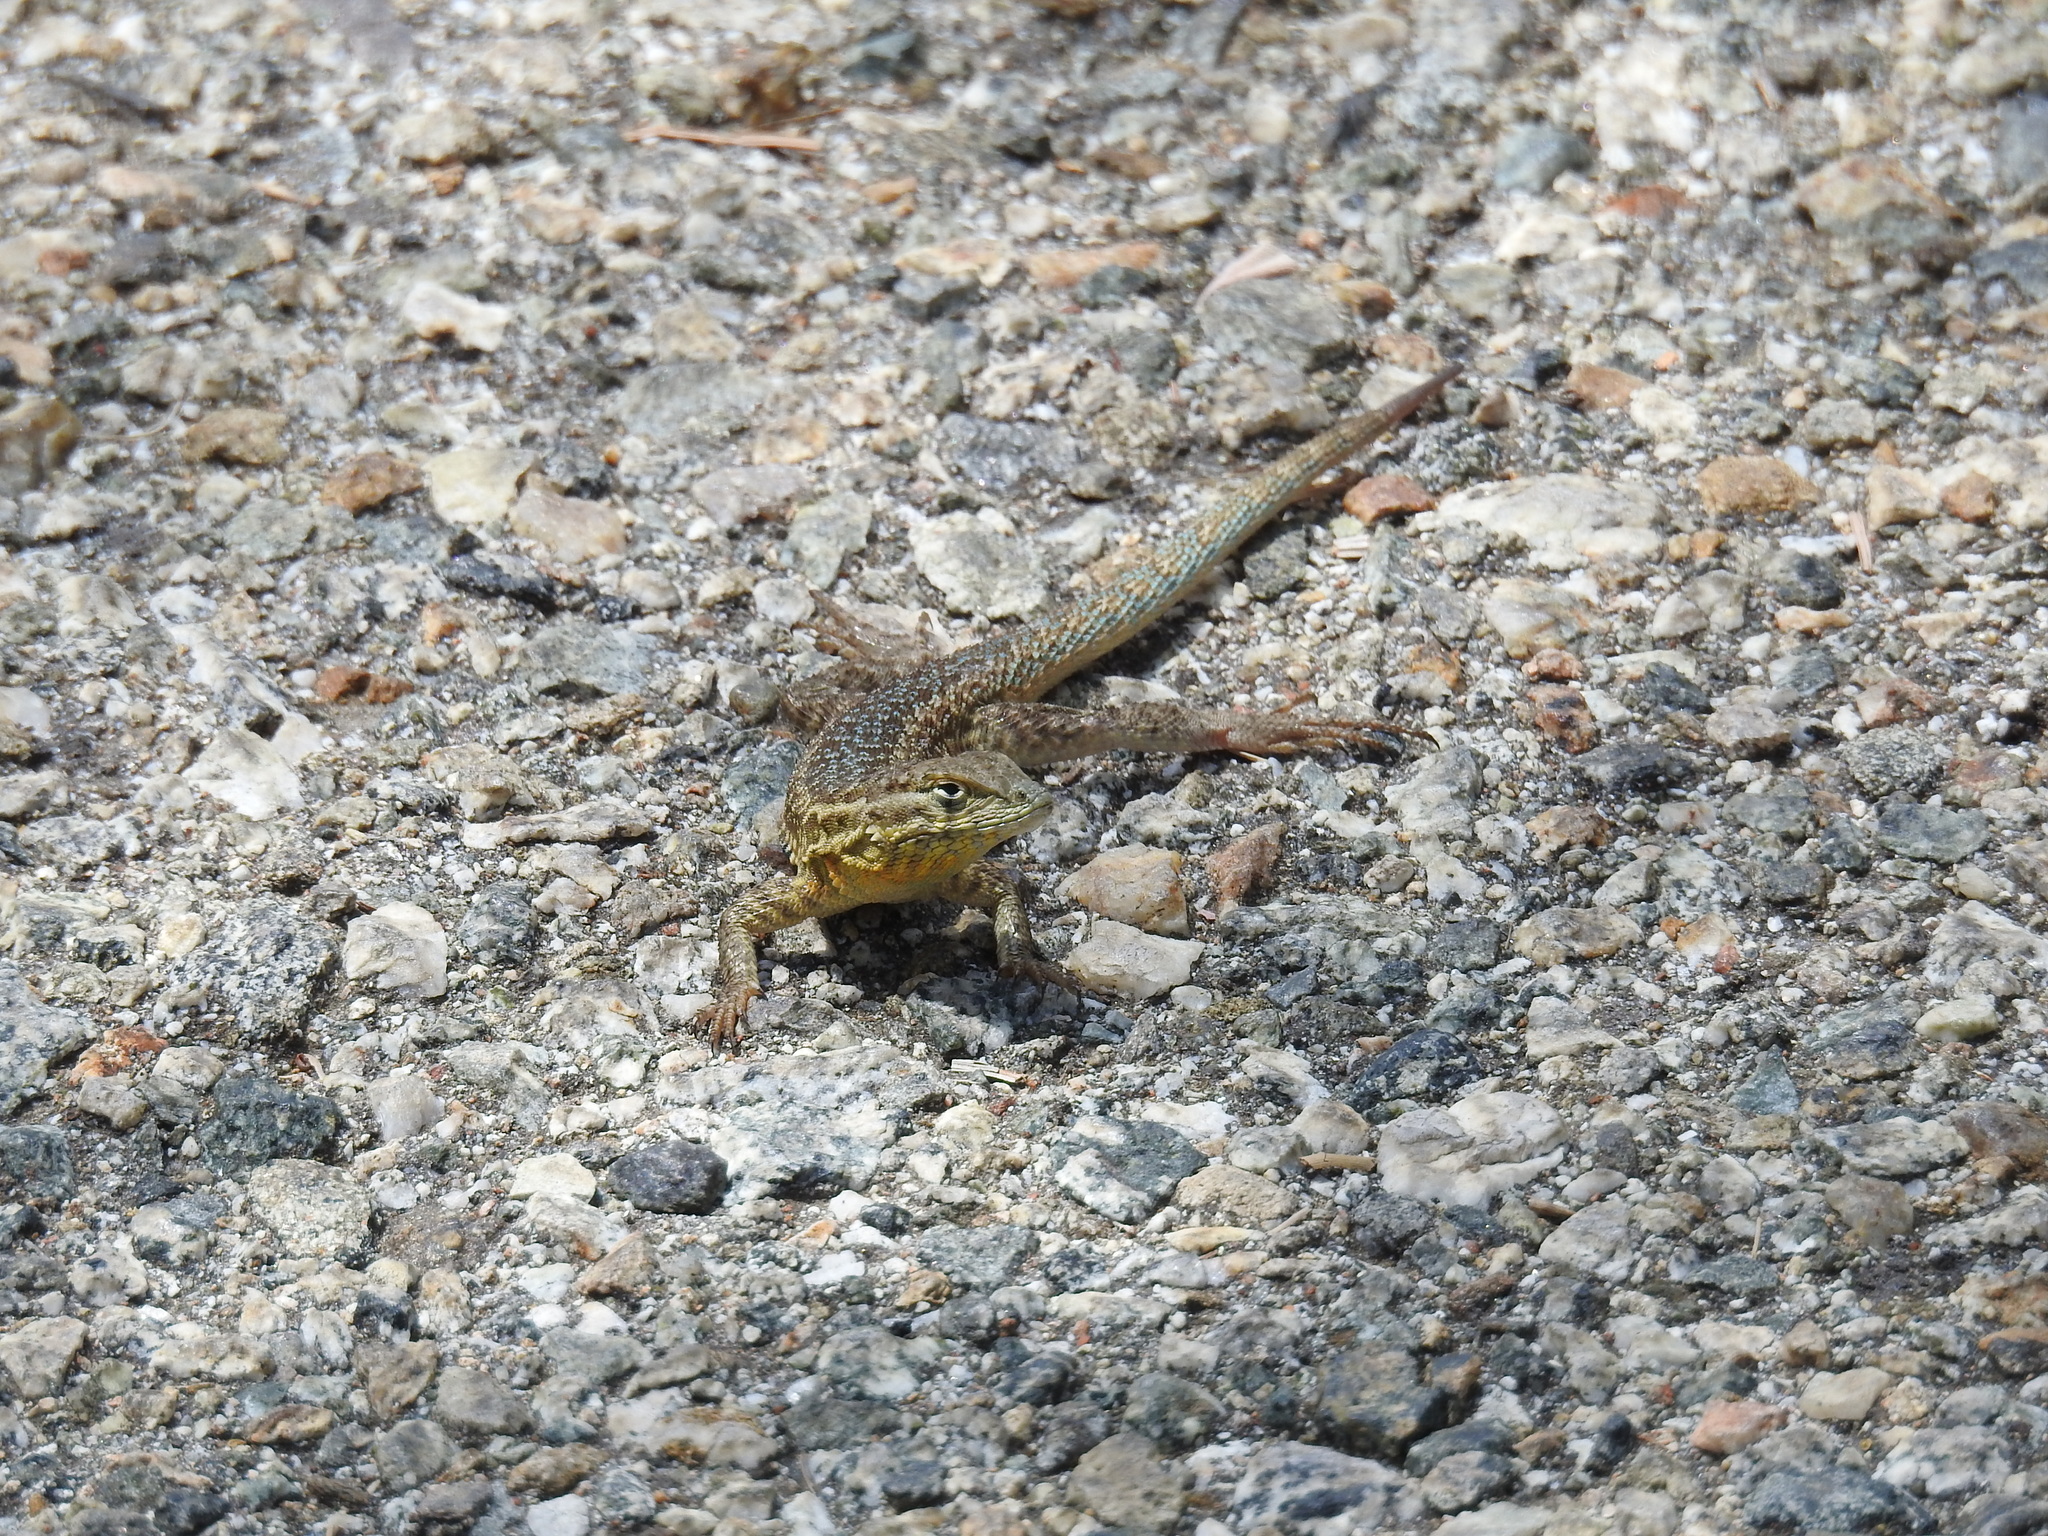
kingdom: Animalia
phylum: Chordata
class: Squamata
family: Phrynosomatidae
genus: Uta
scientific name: Uta stansburiana
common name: Side-blotched lizard
